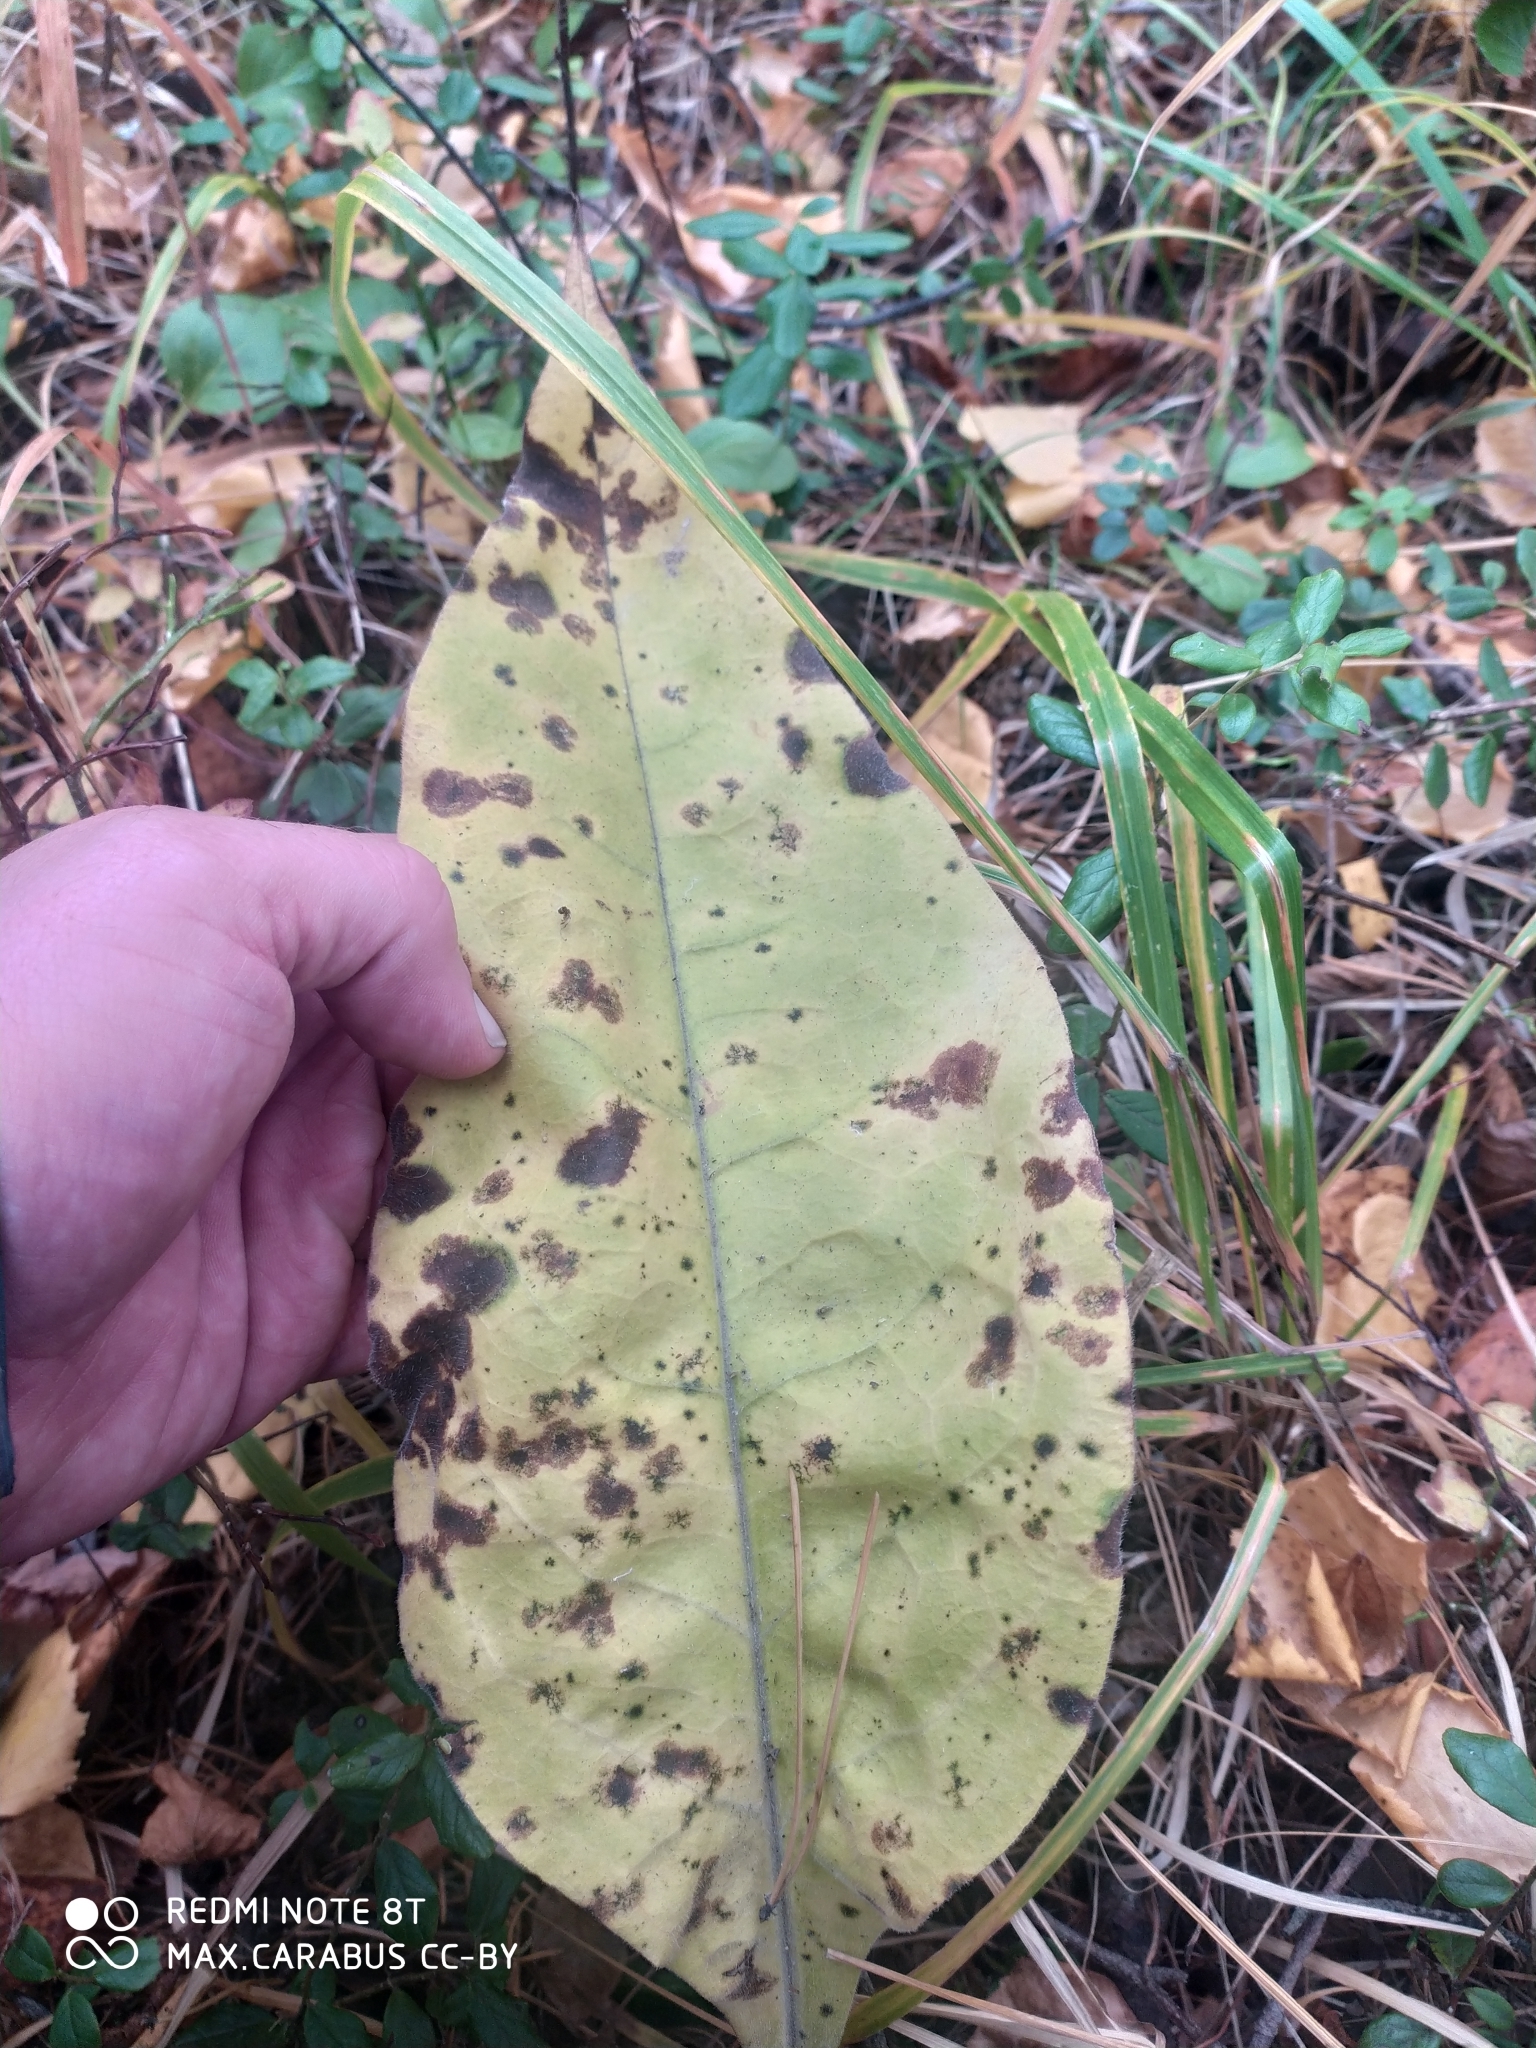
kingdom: Plantae
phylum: Tracheophyta
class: Magnoliopsida
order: Boraginales
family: Boraginaceae
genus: Pulmonaria
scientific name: Pulmonaria mollis
